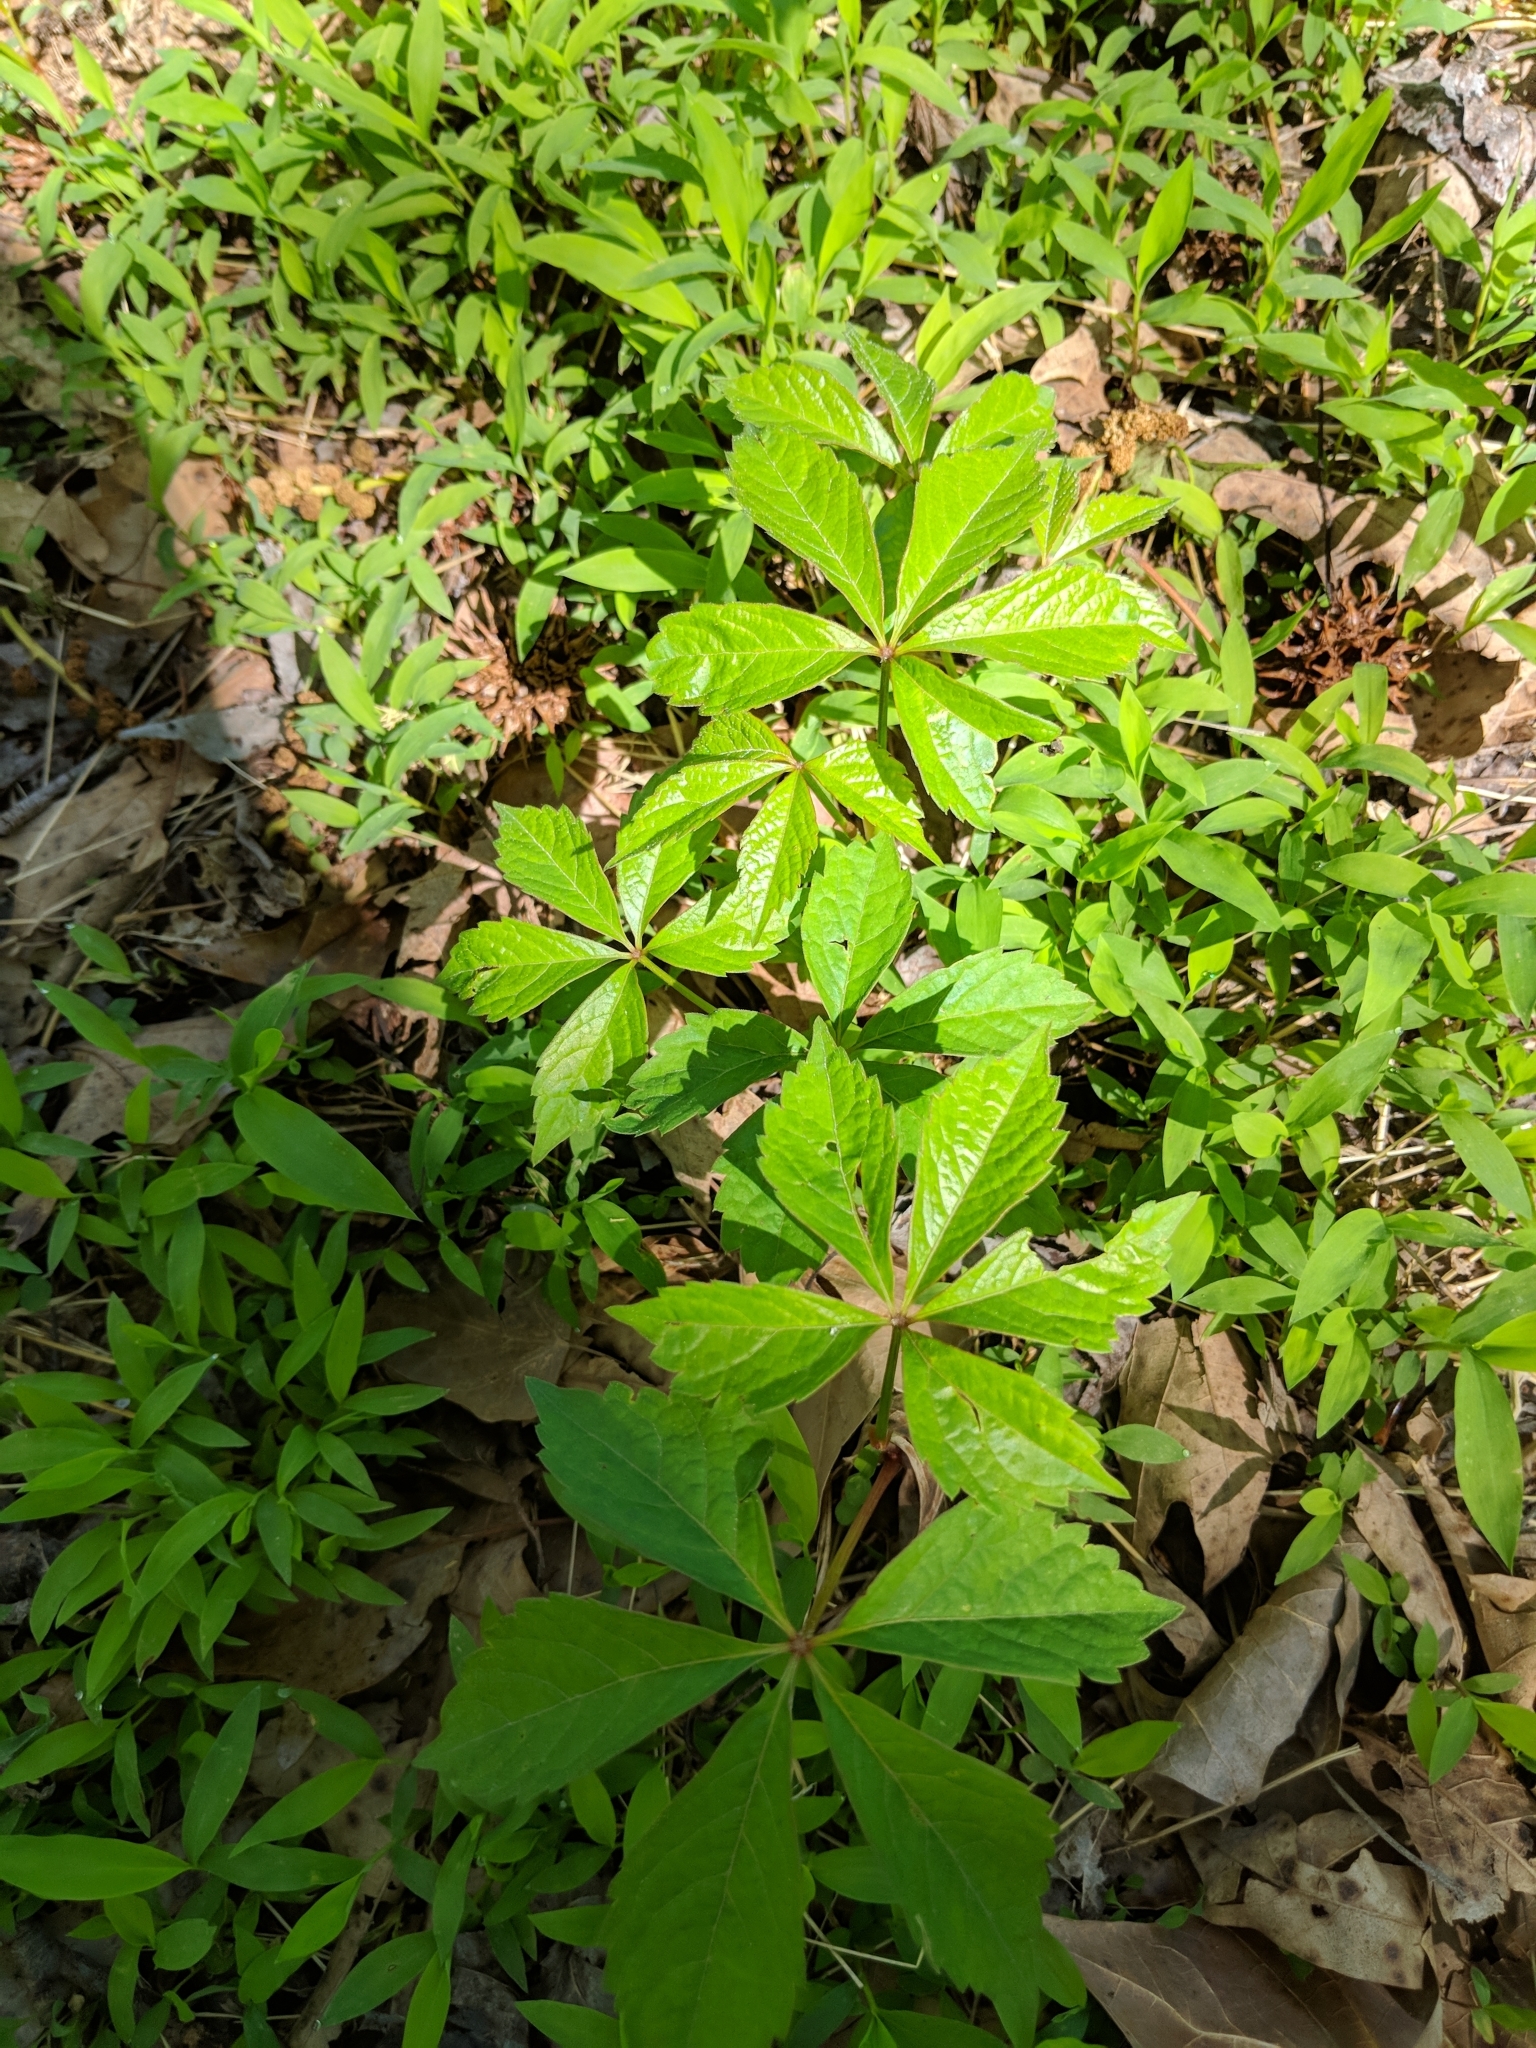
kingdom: Plantae
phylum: Tracheophyta
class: Magnoliopsida
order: Vitales
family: Vitaceae
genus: Parthenocissus
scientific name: Parthenocissus quinquefolia
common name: Virginia-creeper
